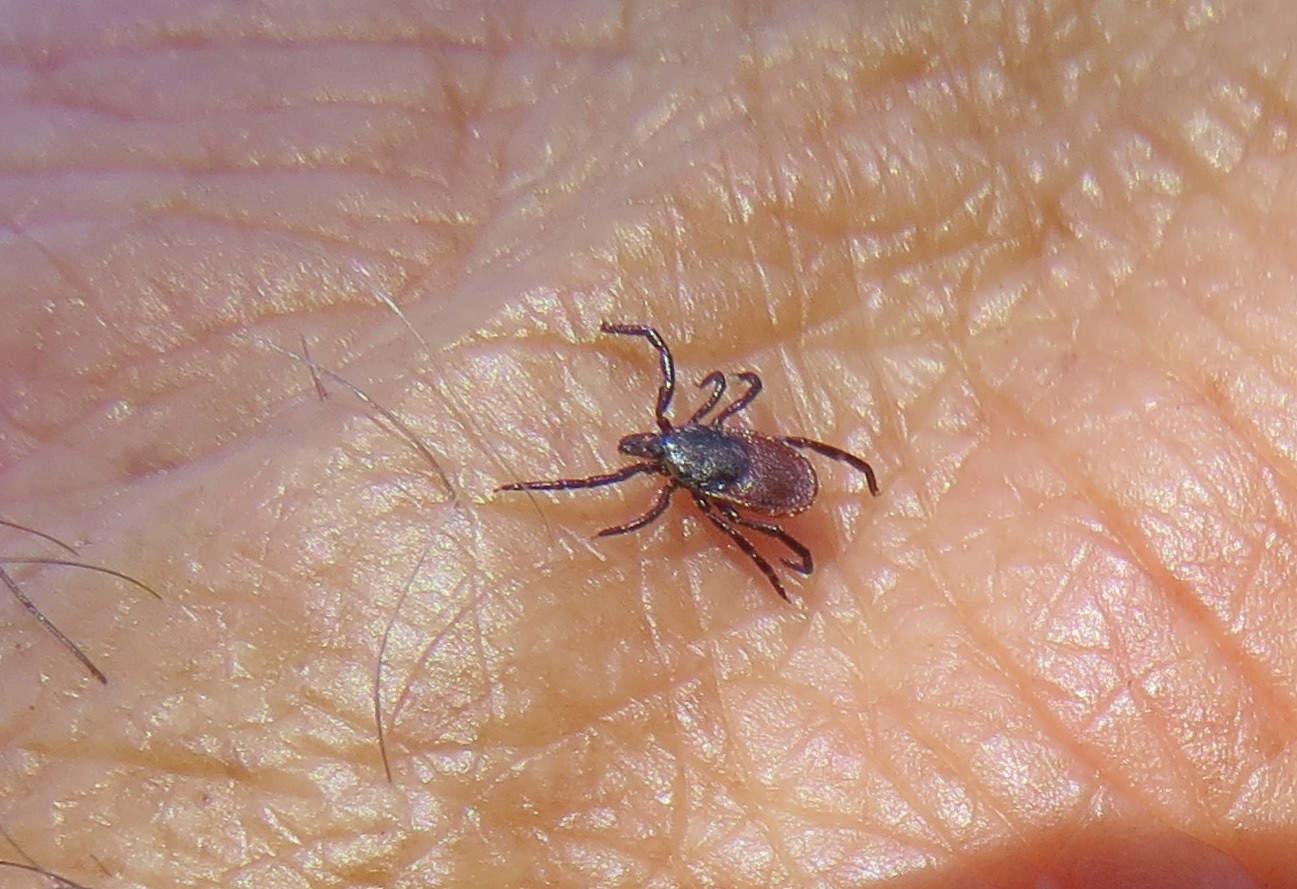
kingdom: Animalia
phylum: Arthropoda
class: Arachnida
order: Ixodida
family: Ixodidae
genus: Ixodes
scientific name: Ixodes pacificus
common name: California black-legged tick
